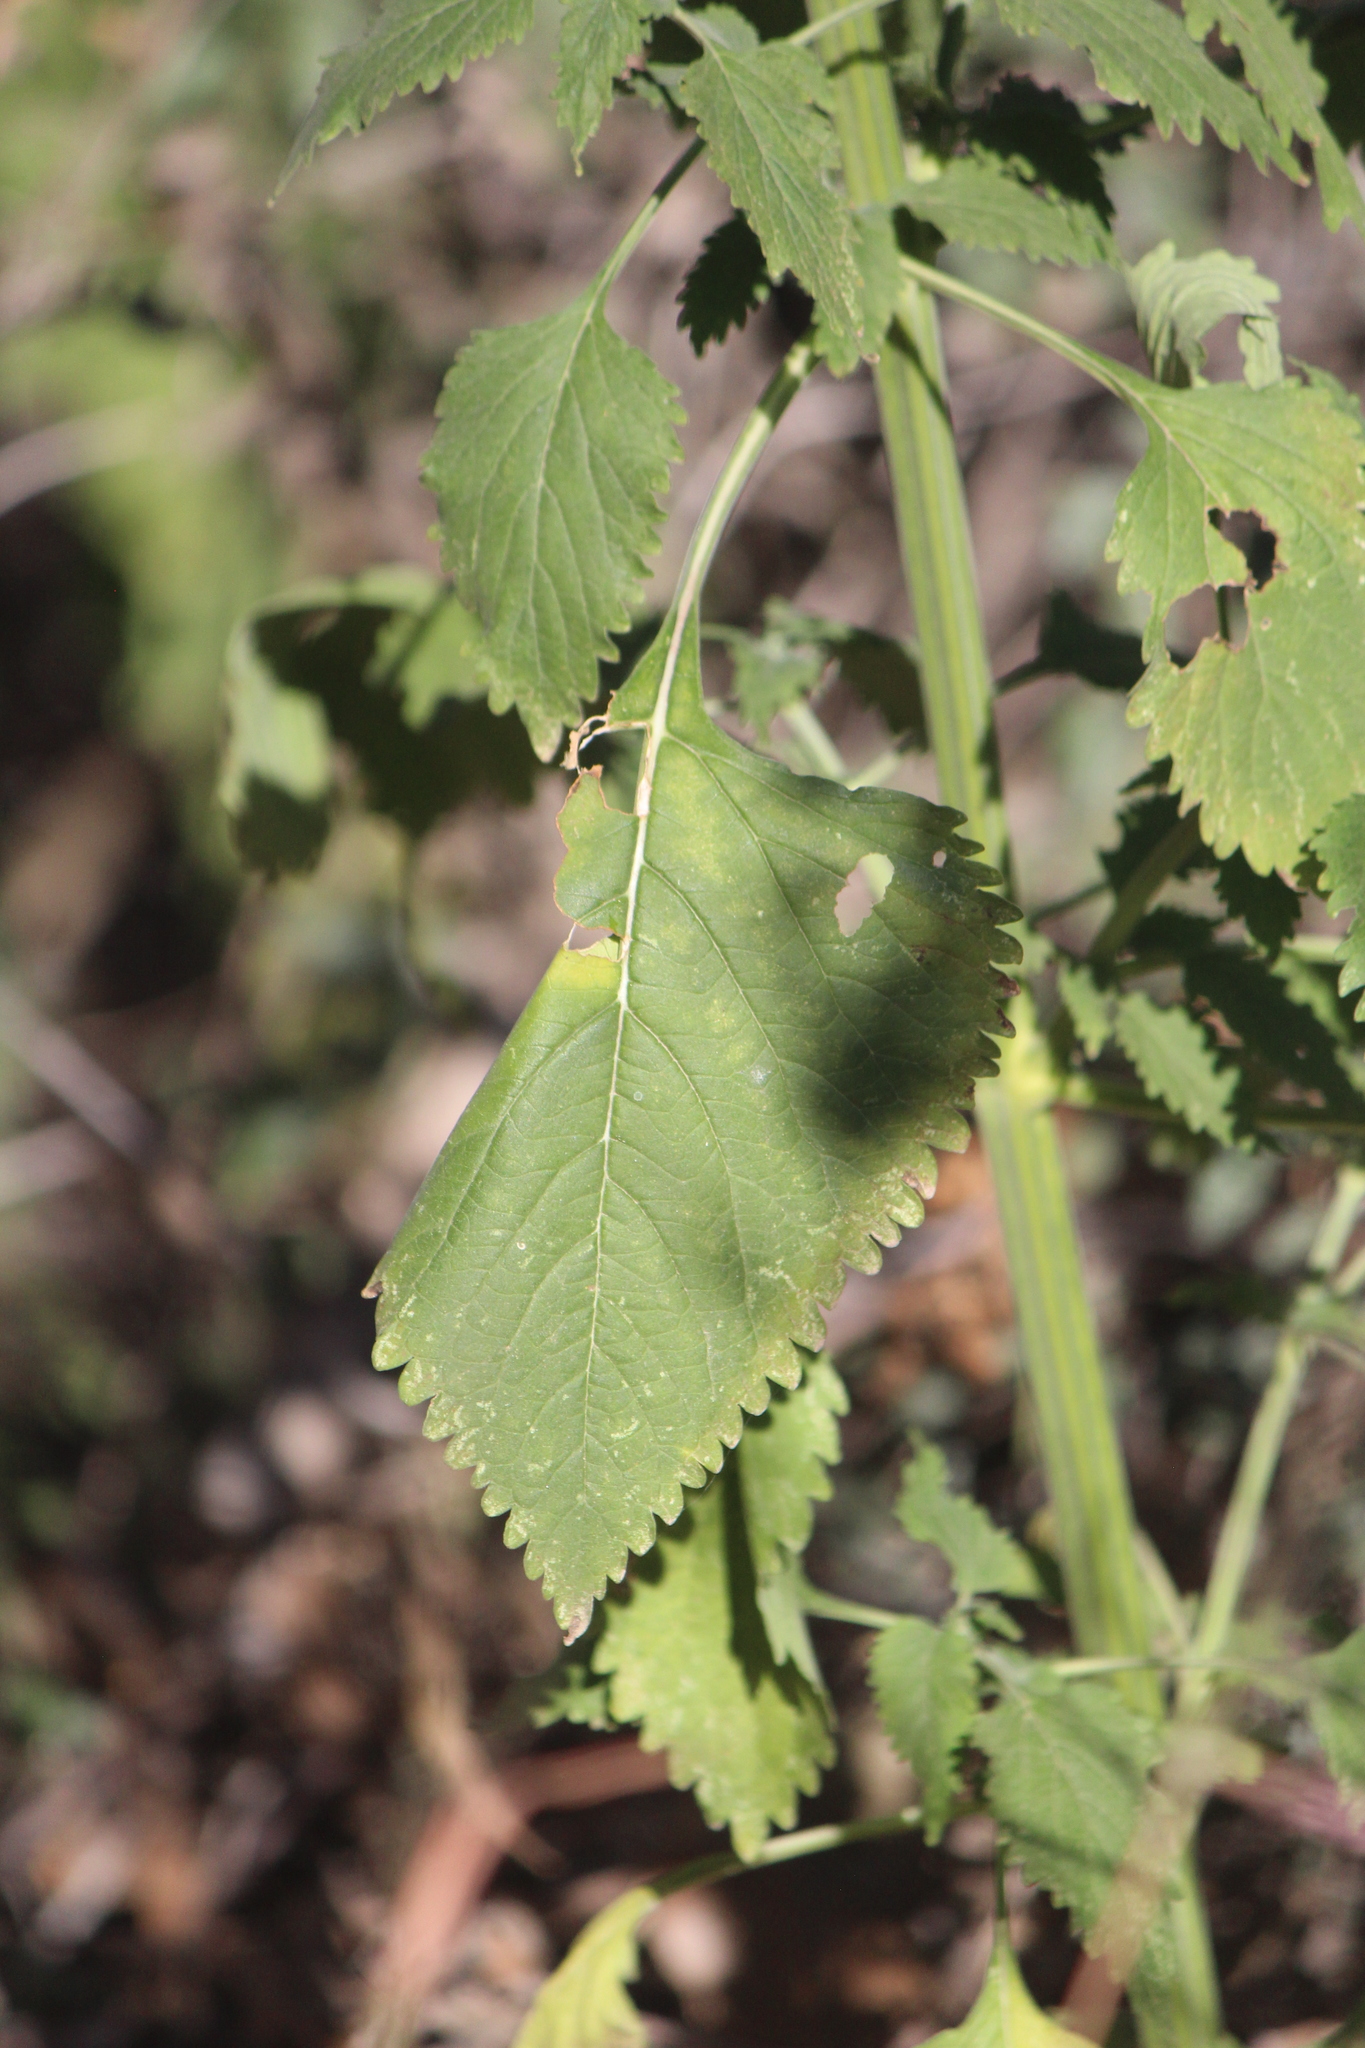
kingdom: Plantae
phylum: Tracheophyta
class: Magnoliopsida
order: Lamiales
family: Lamiaceae
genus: Leonotis
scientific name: Leonotis nepetifolia
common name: Christmas candlestick
